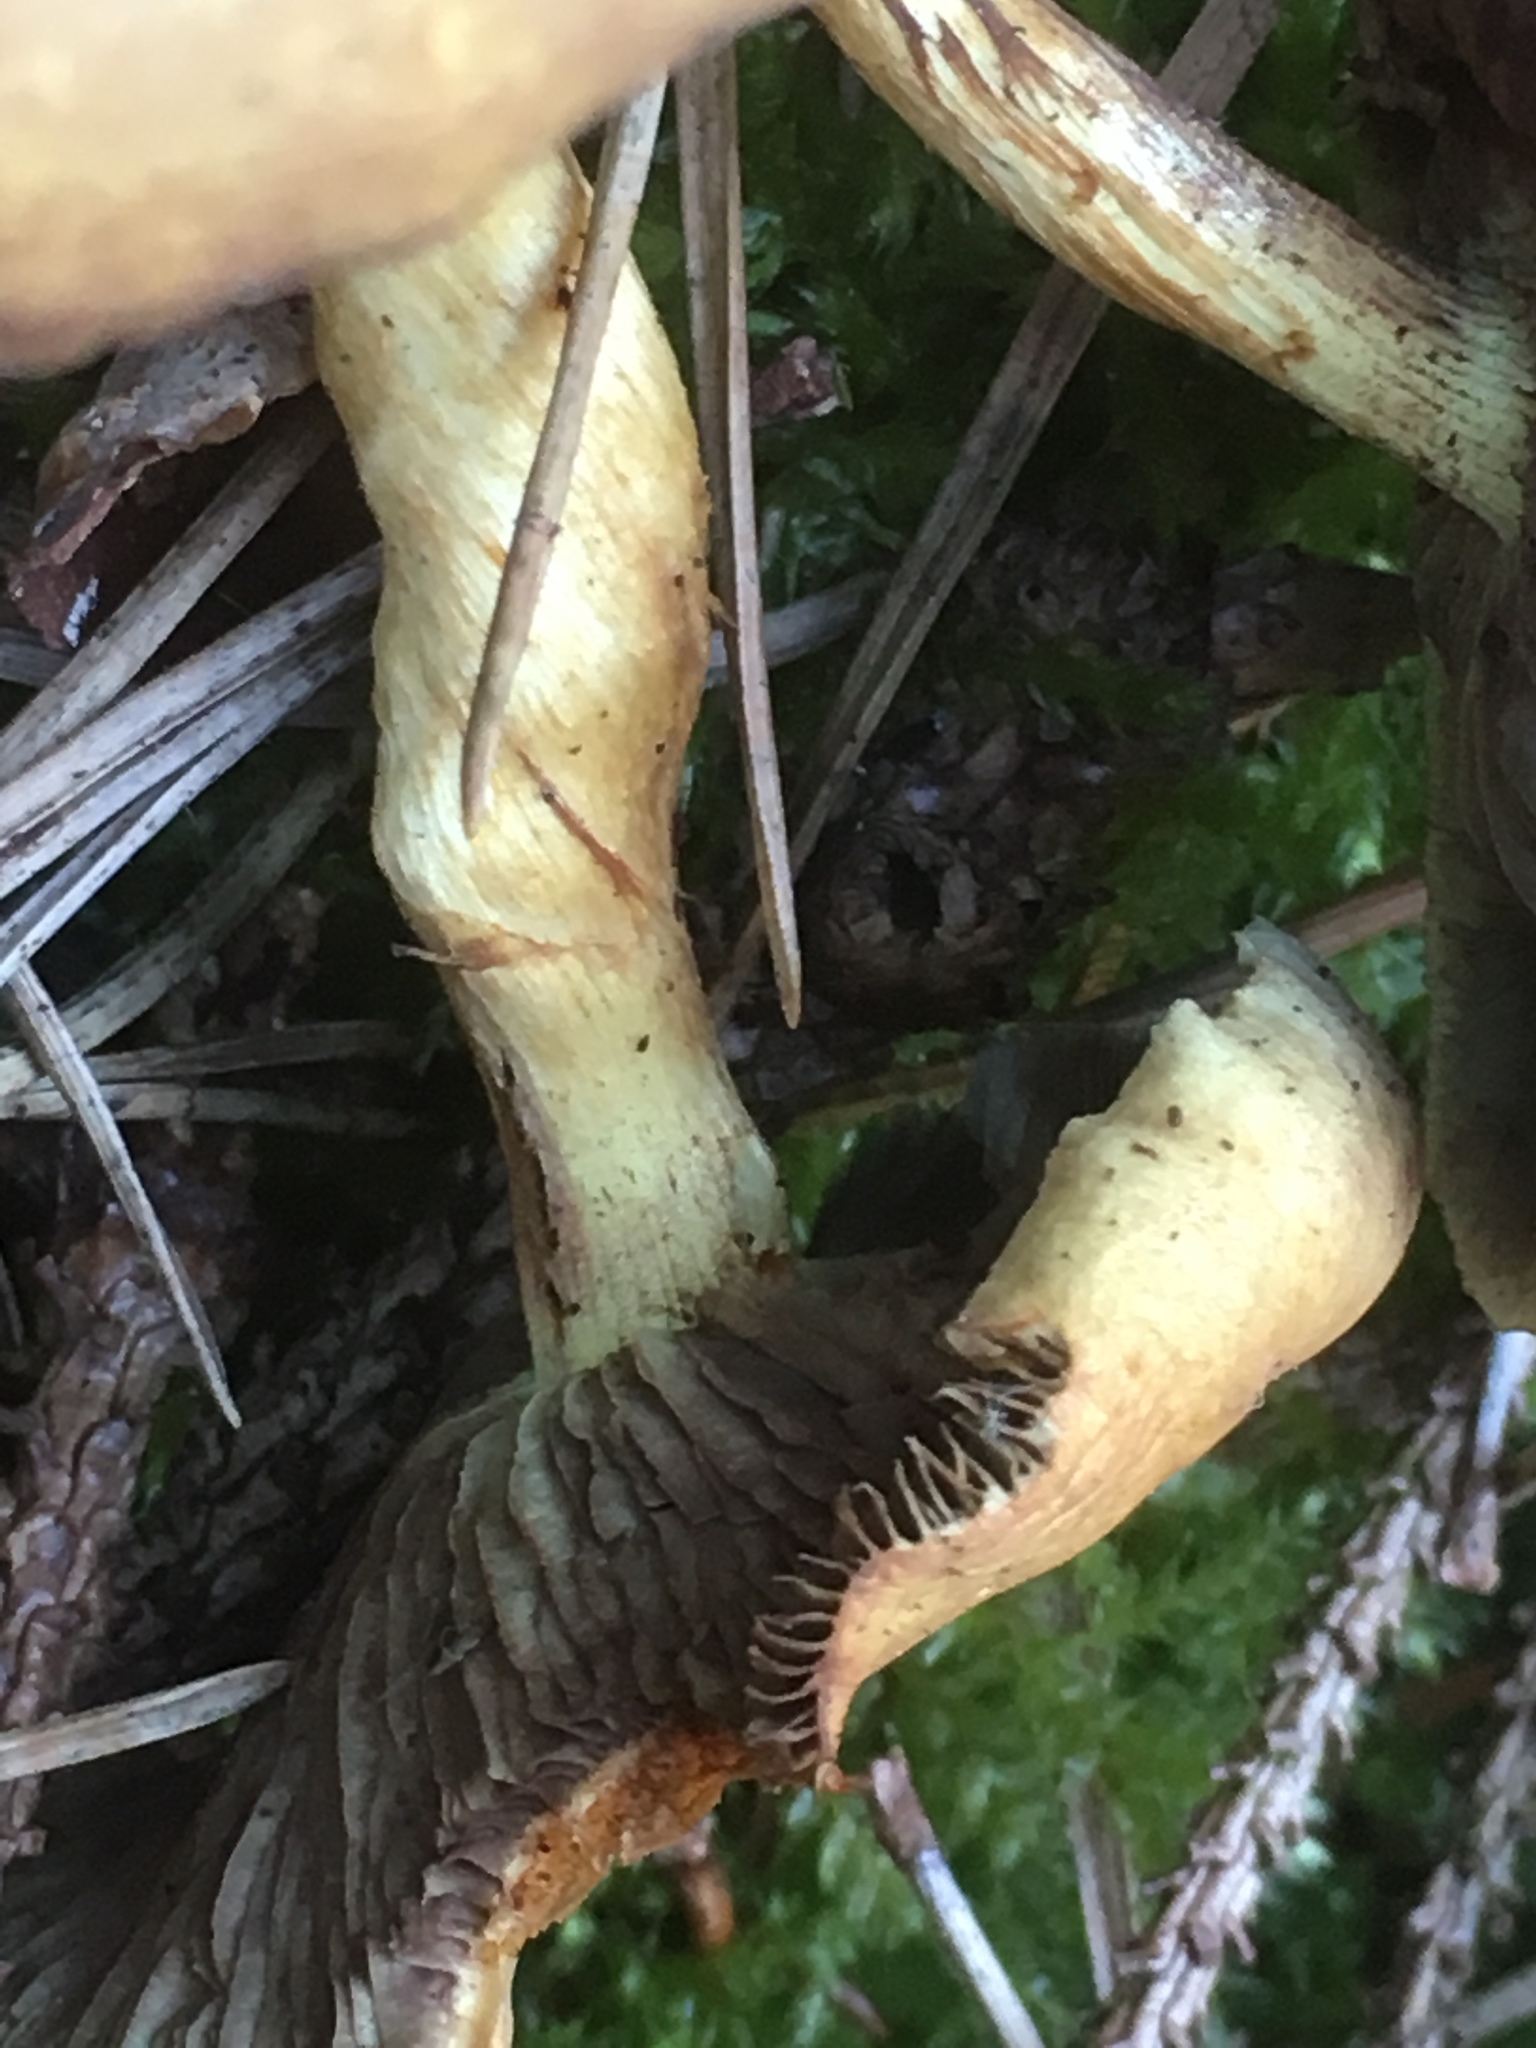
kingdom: Fungi
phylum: Basidiomycota
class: Agaricomycetes
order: Agaricales
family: Strophariaceae
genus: Hypholoma
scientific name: Hypholoma fasciculare
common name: Sulphur tuft
